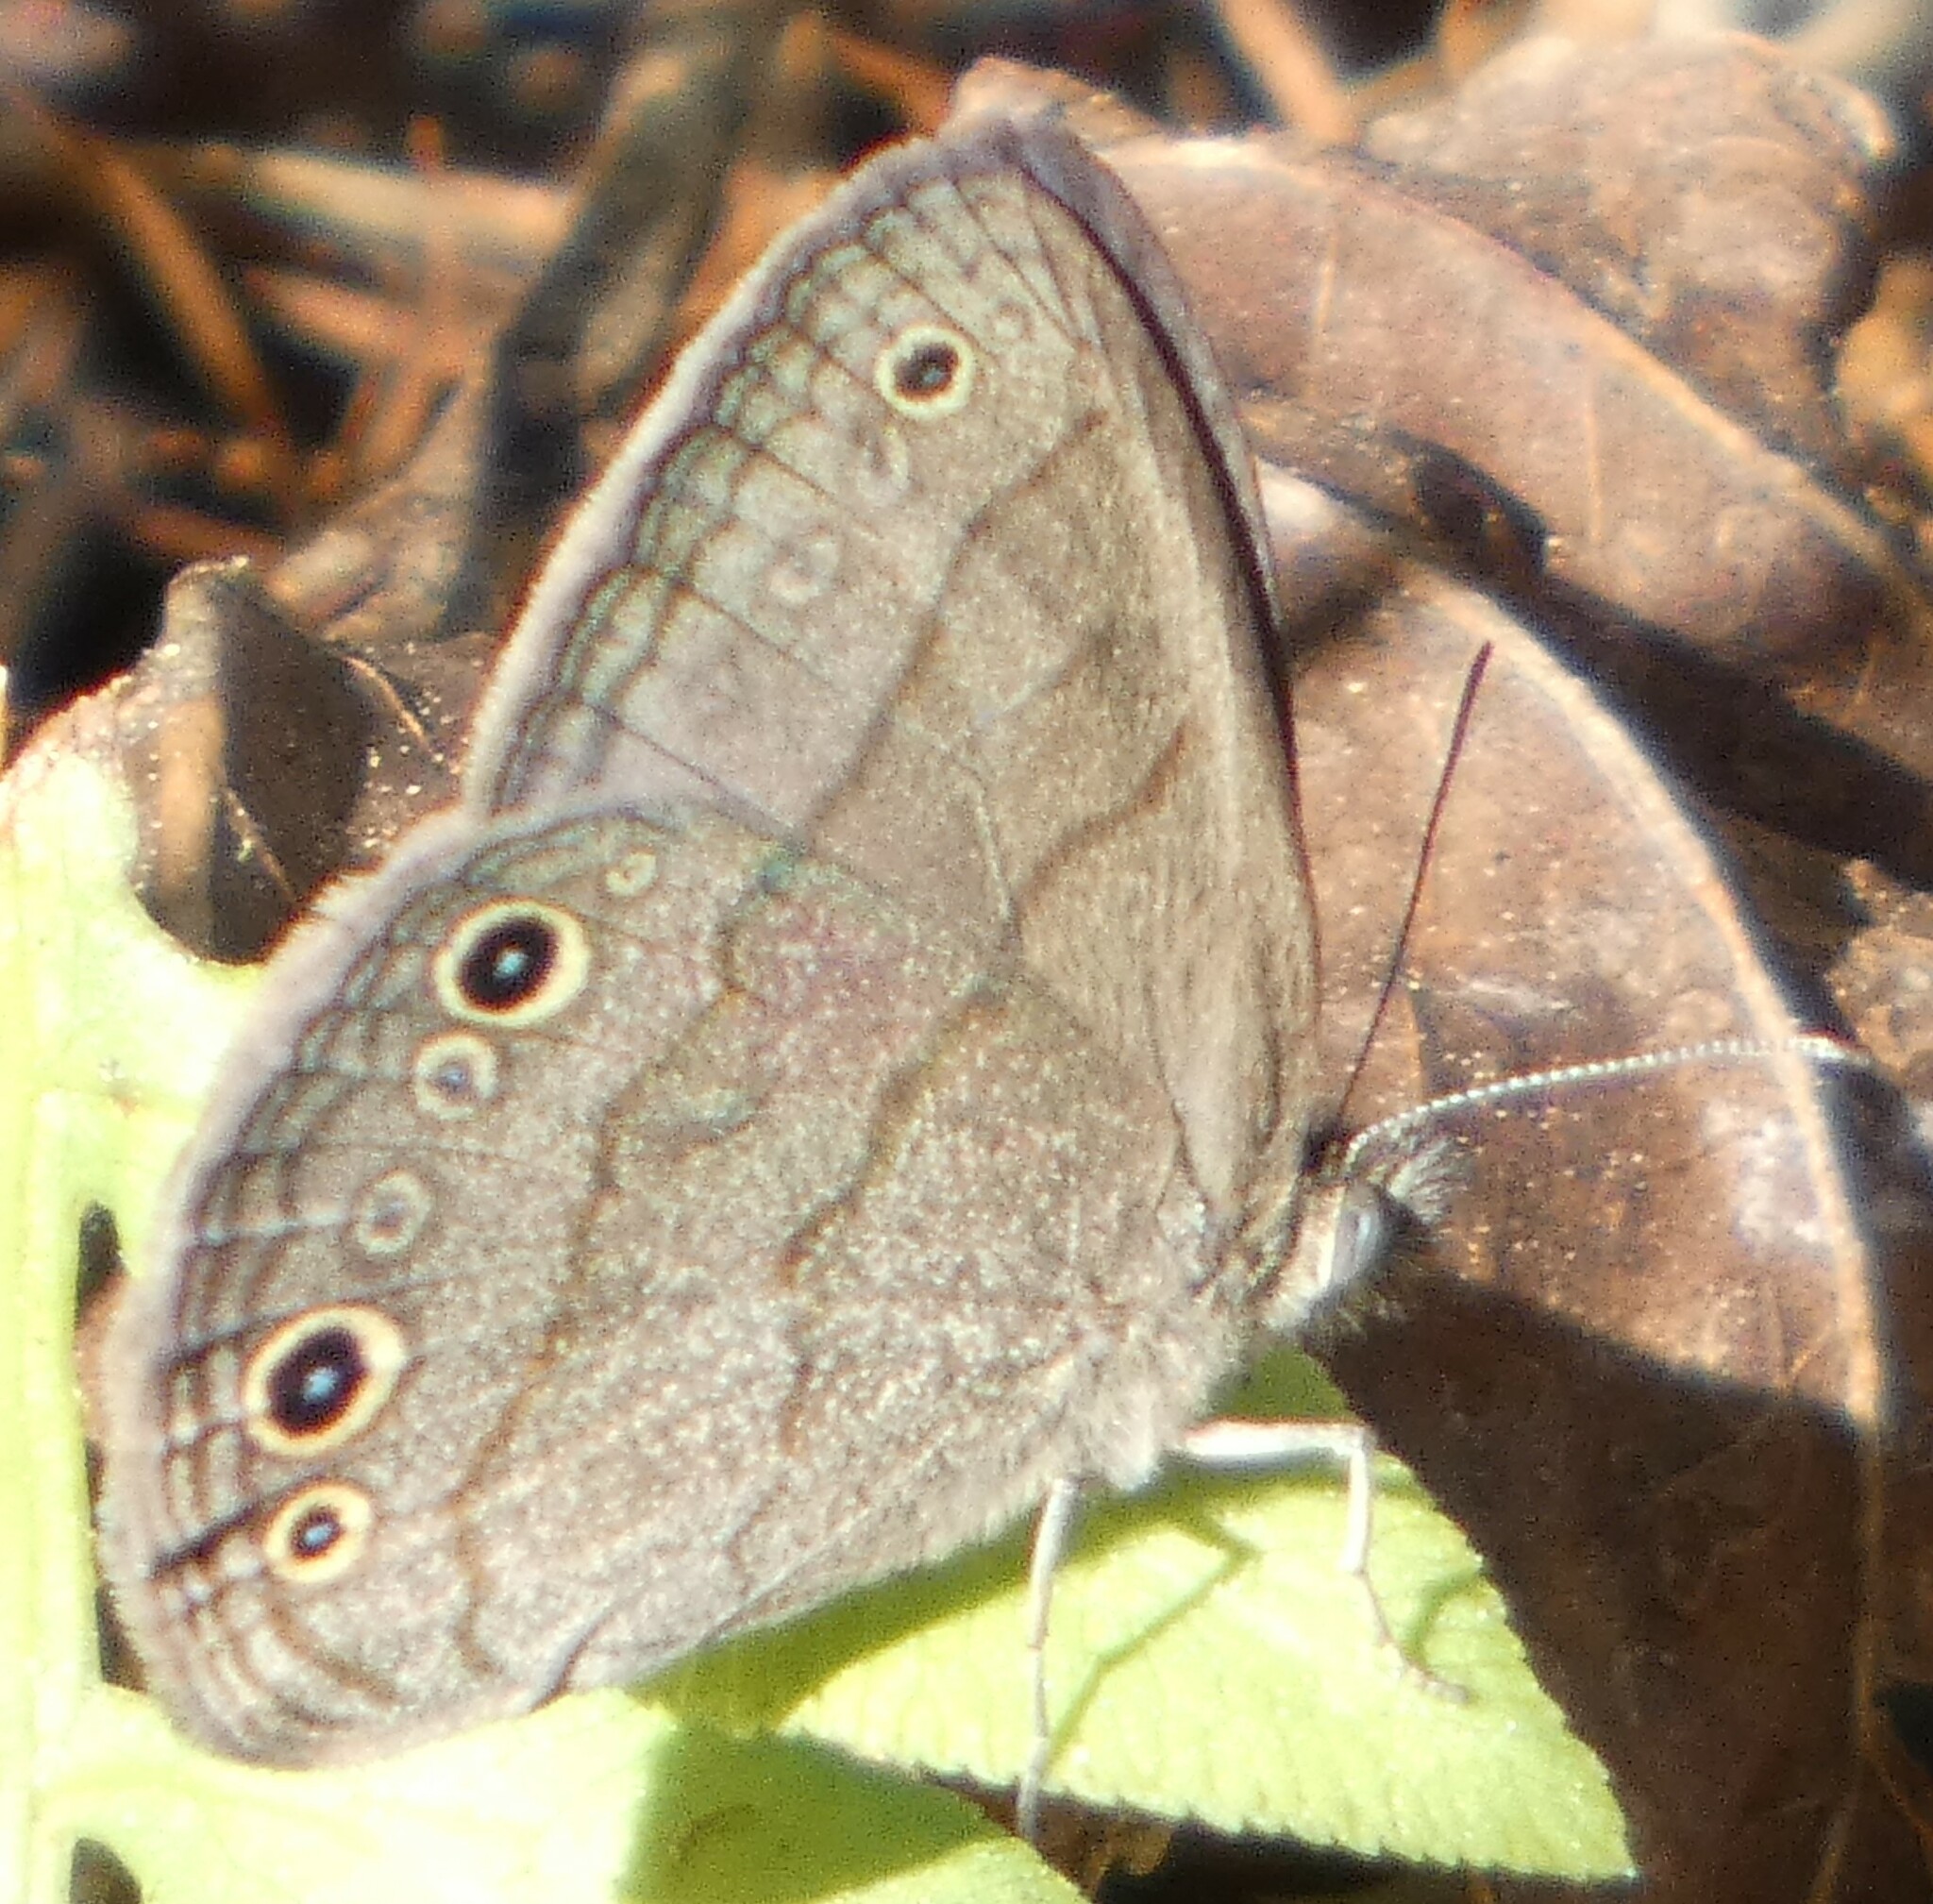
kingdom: Animalia
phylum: Arthropoda
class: Insecta
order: Lepidoptera
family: Nymphalidae
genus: Hermeuptychia
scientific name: Hermeuptychia hermes
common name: Hermes satyr
